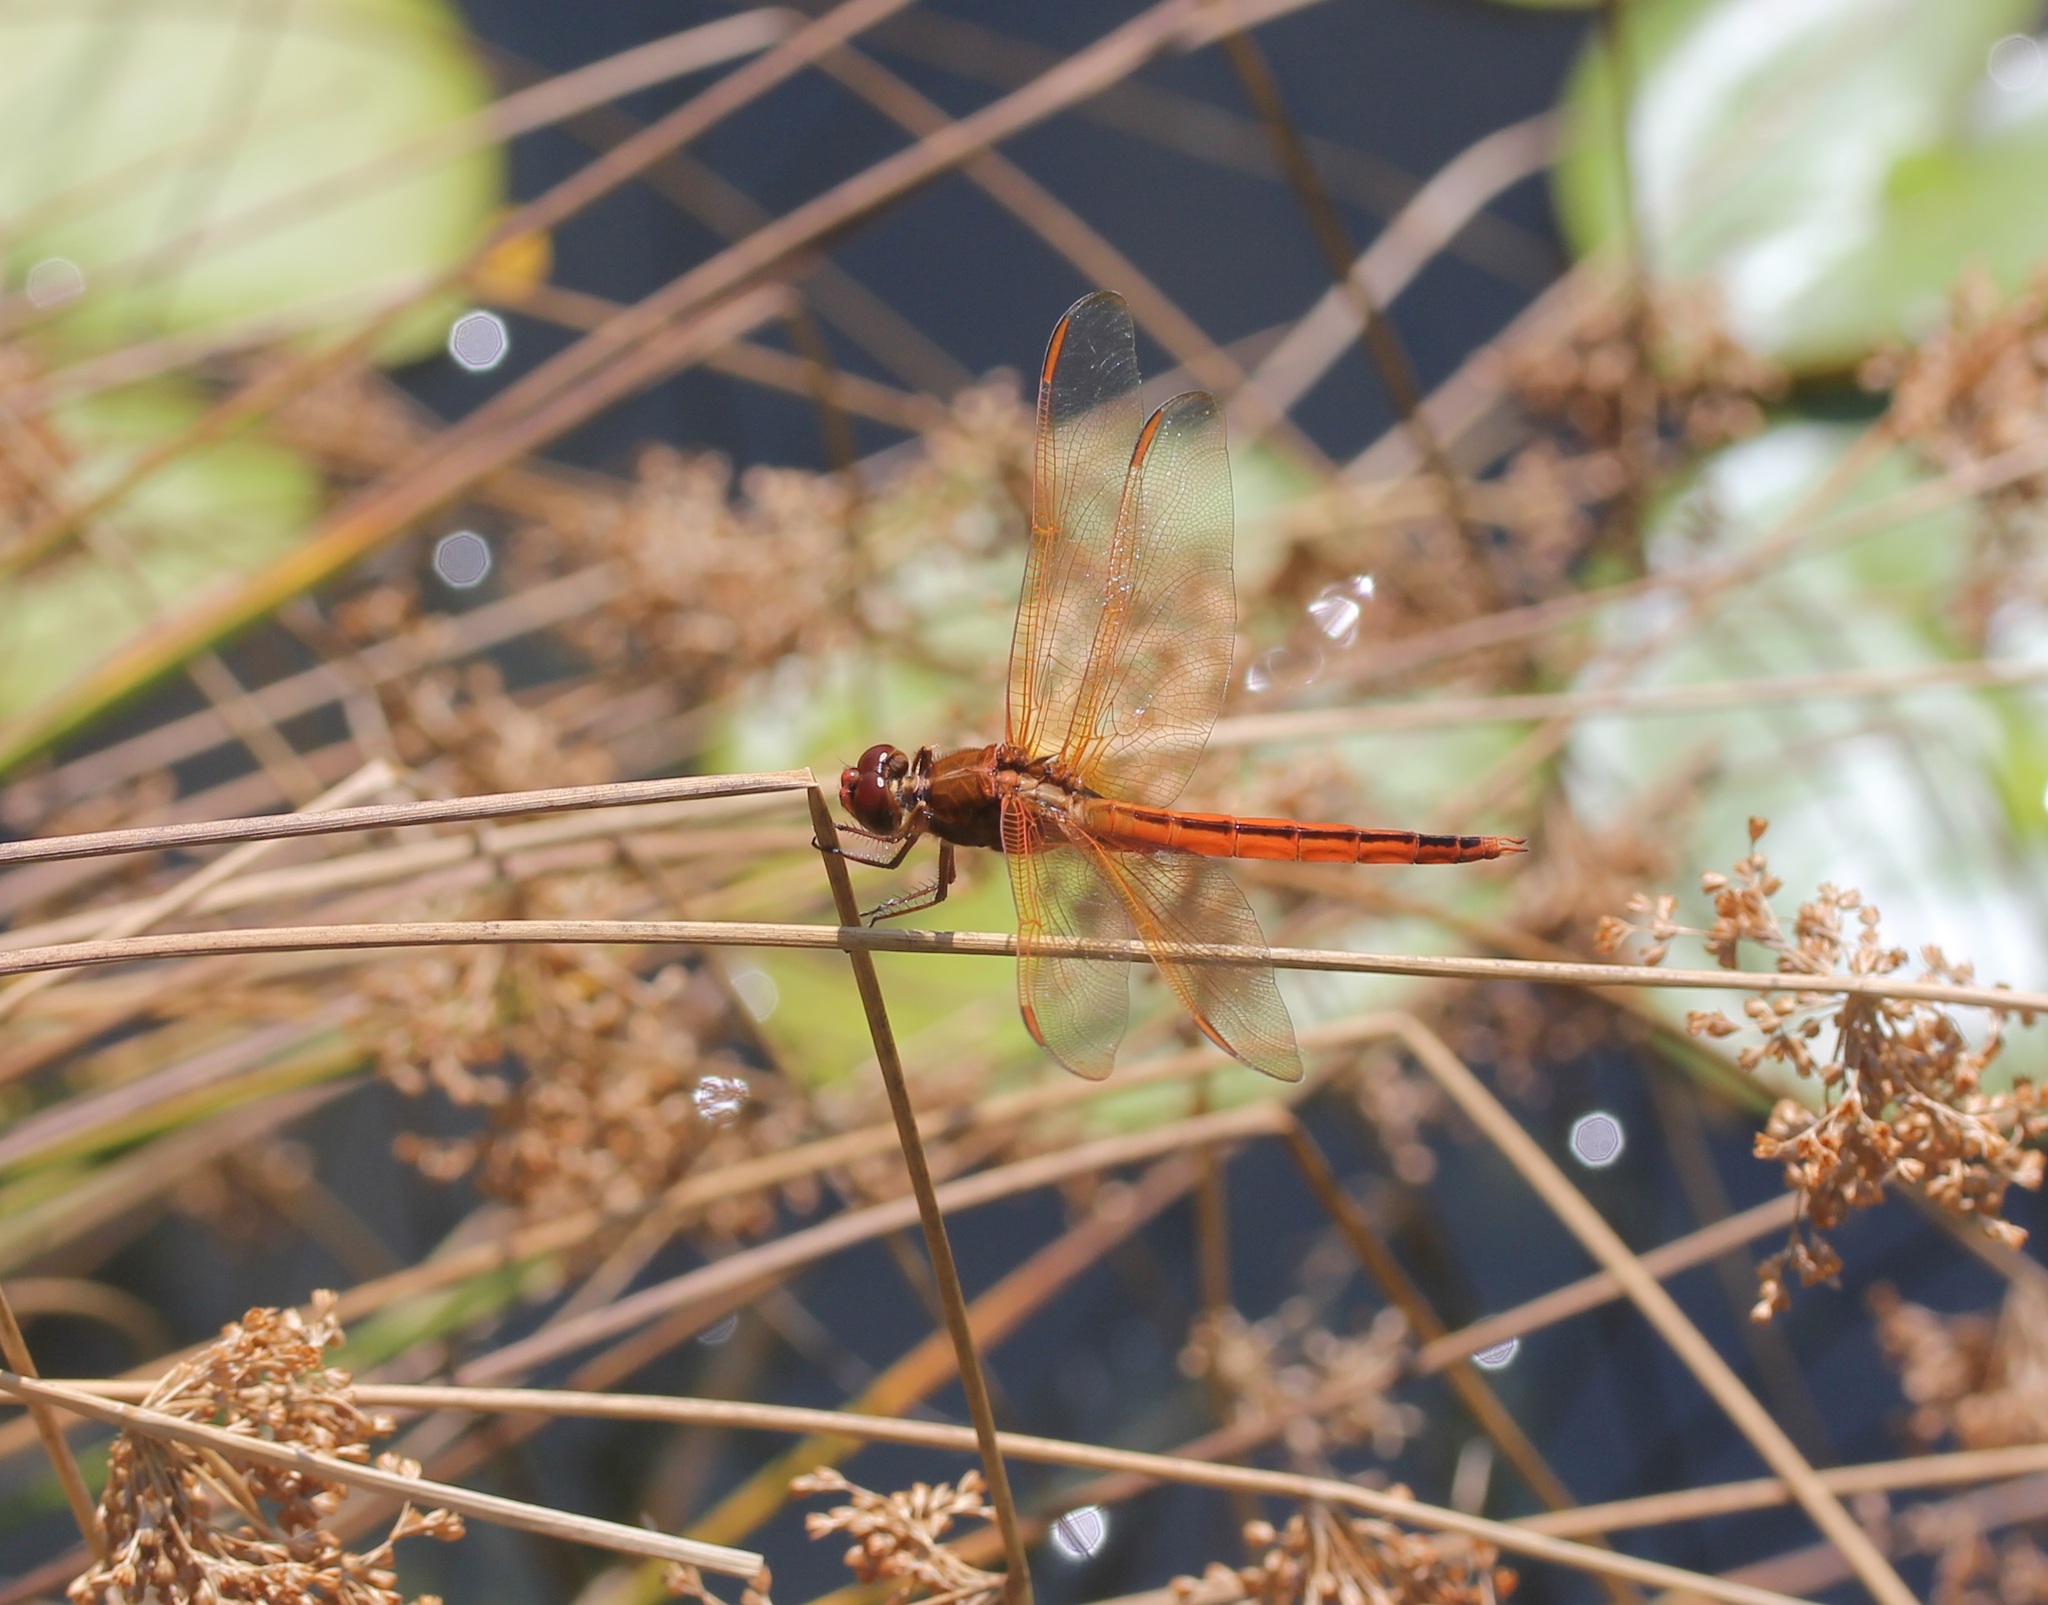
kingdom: Animalia
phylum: Arthropoda
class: Insecta
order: Odonata
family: Libellulidae
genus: Libellula
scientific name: Libellula needhami
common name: Needham's skimmer
